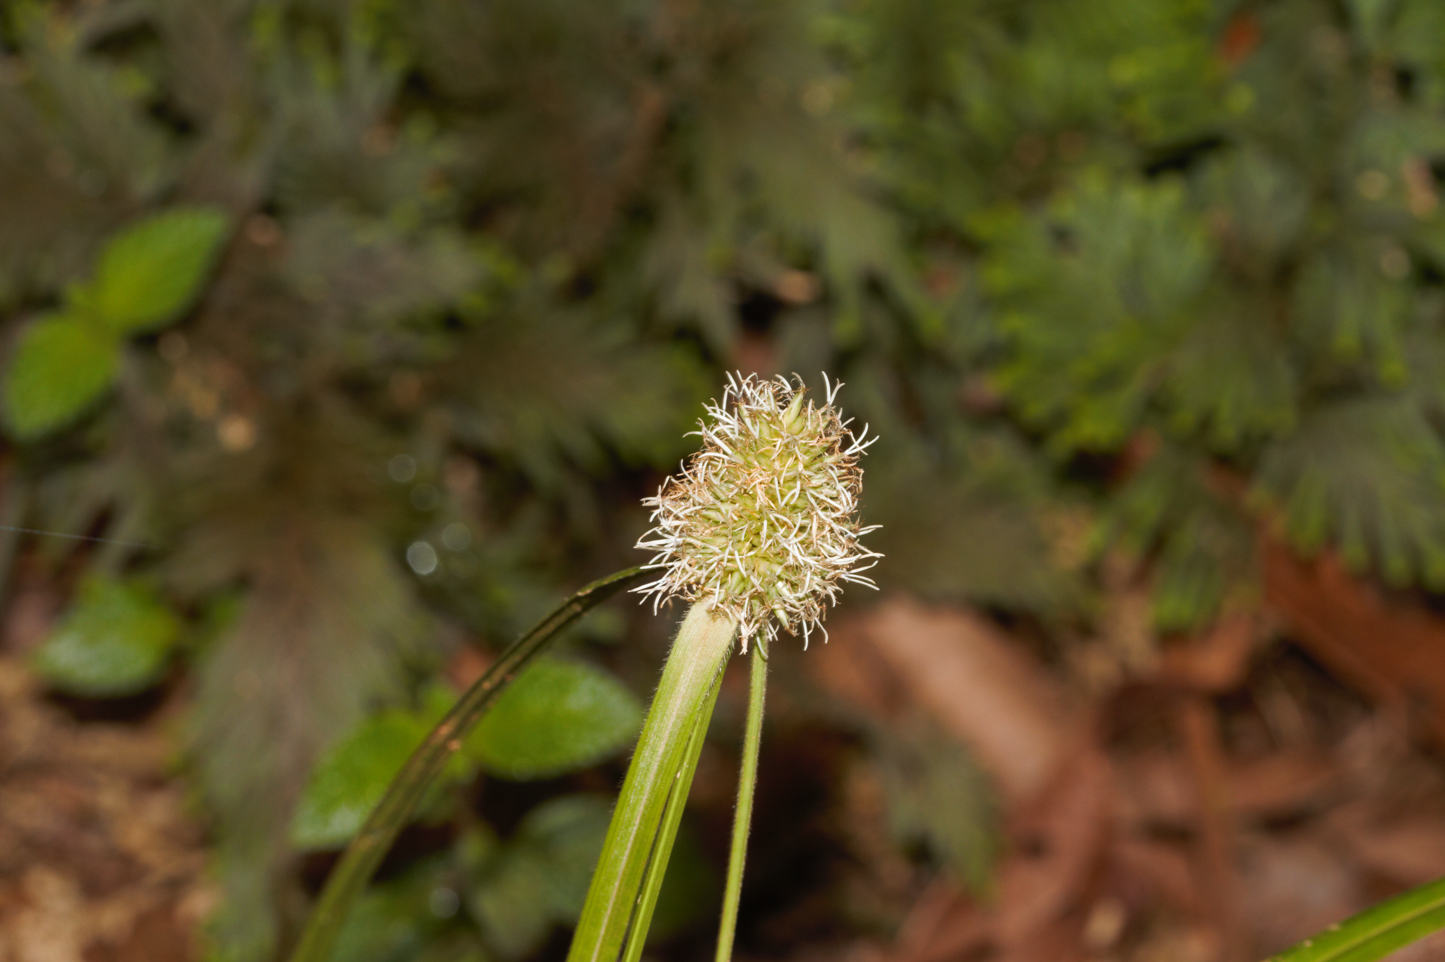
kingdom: Plantae
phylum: Tracheophyta
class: Liliopsida
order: Poales
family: Cyperaceae
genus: Rhynchospora
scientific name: Rhynchospora cephalotes
